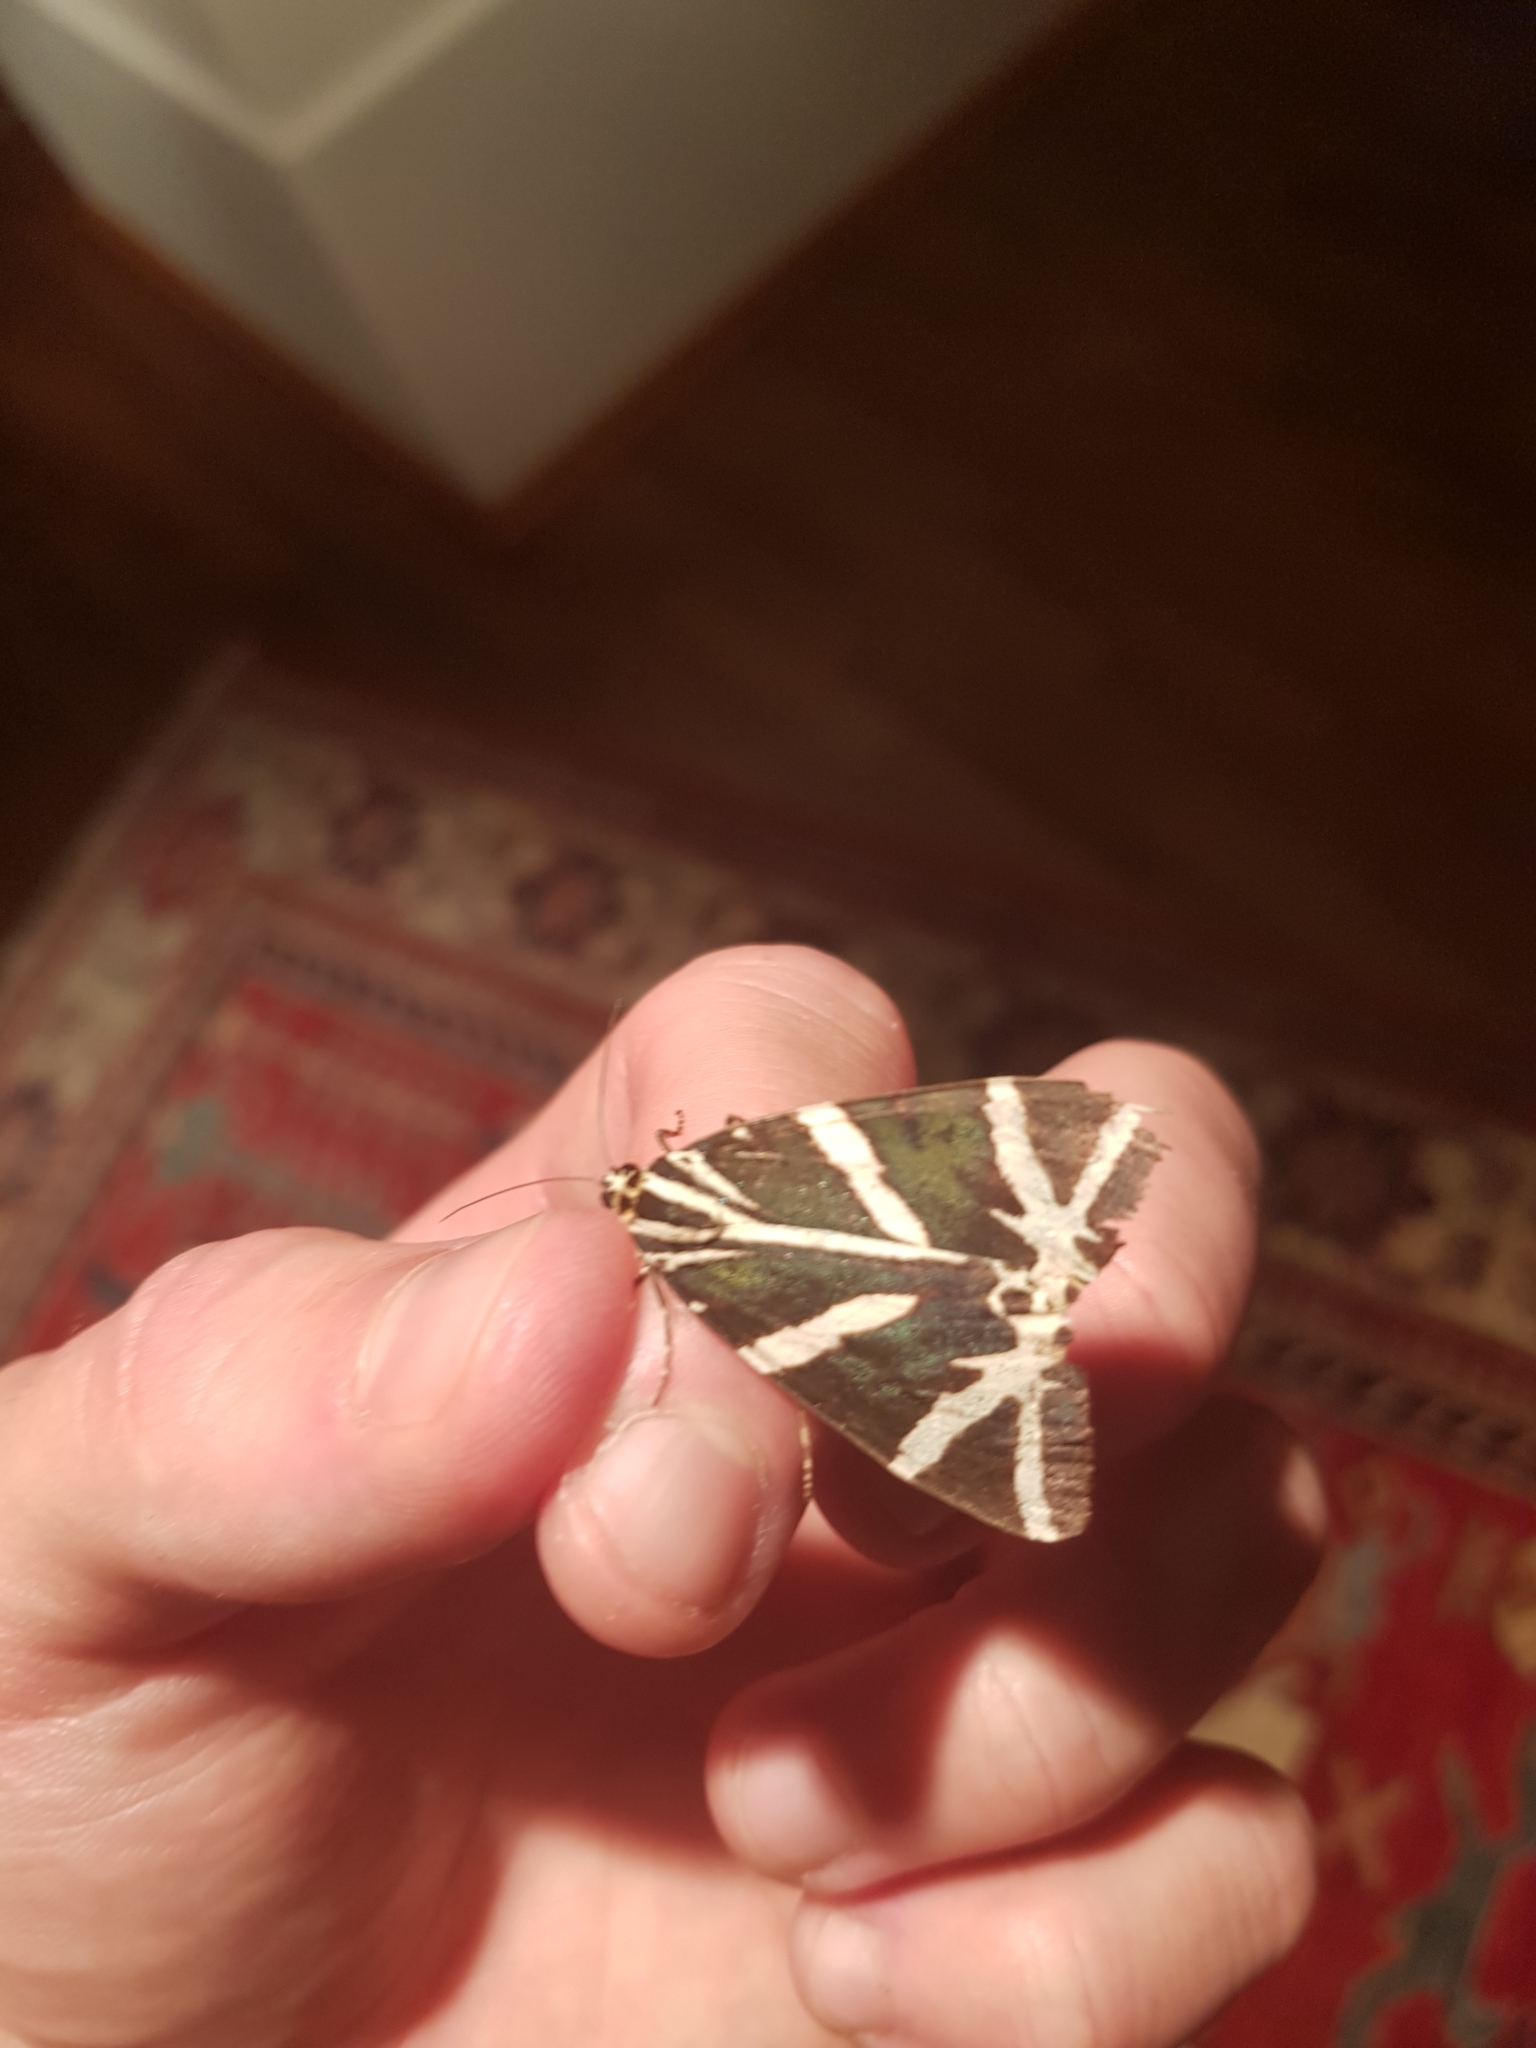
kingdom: Animalia
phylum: Arthropoda
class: Insecta
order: Lepidoptera
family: Erebidae
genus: Euplagia
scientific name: Euplagia quadripunctaria
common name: Jersey tiger
